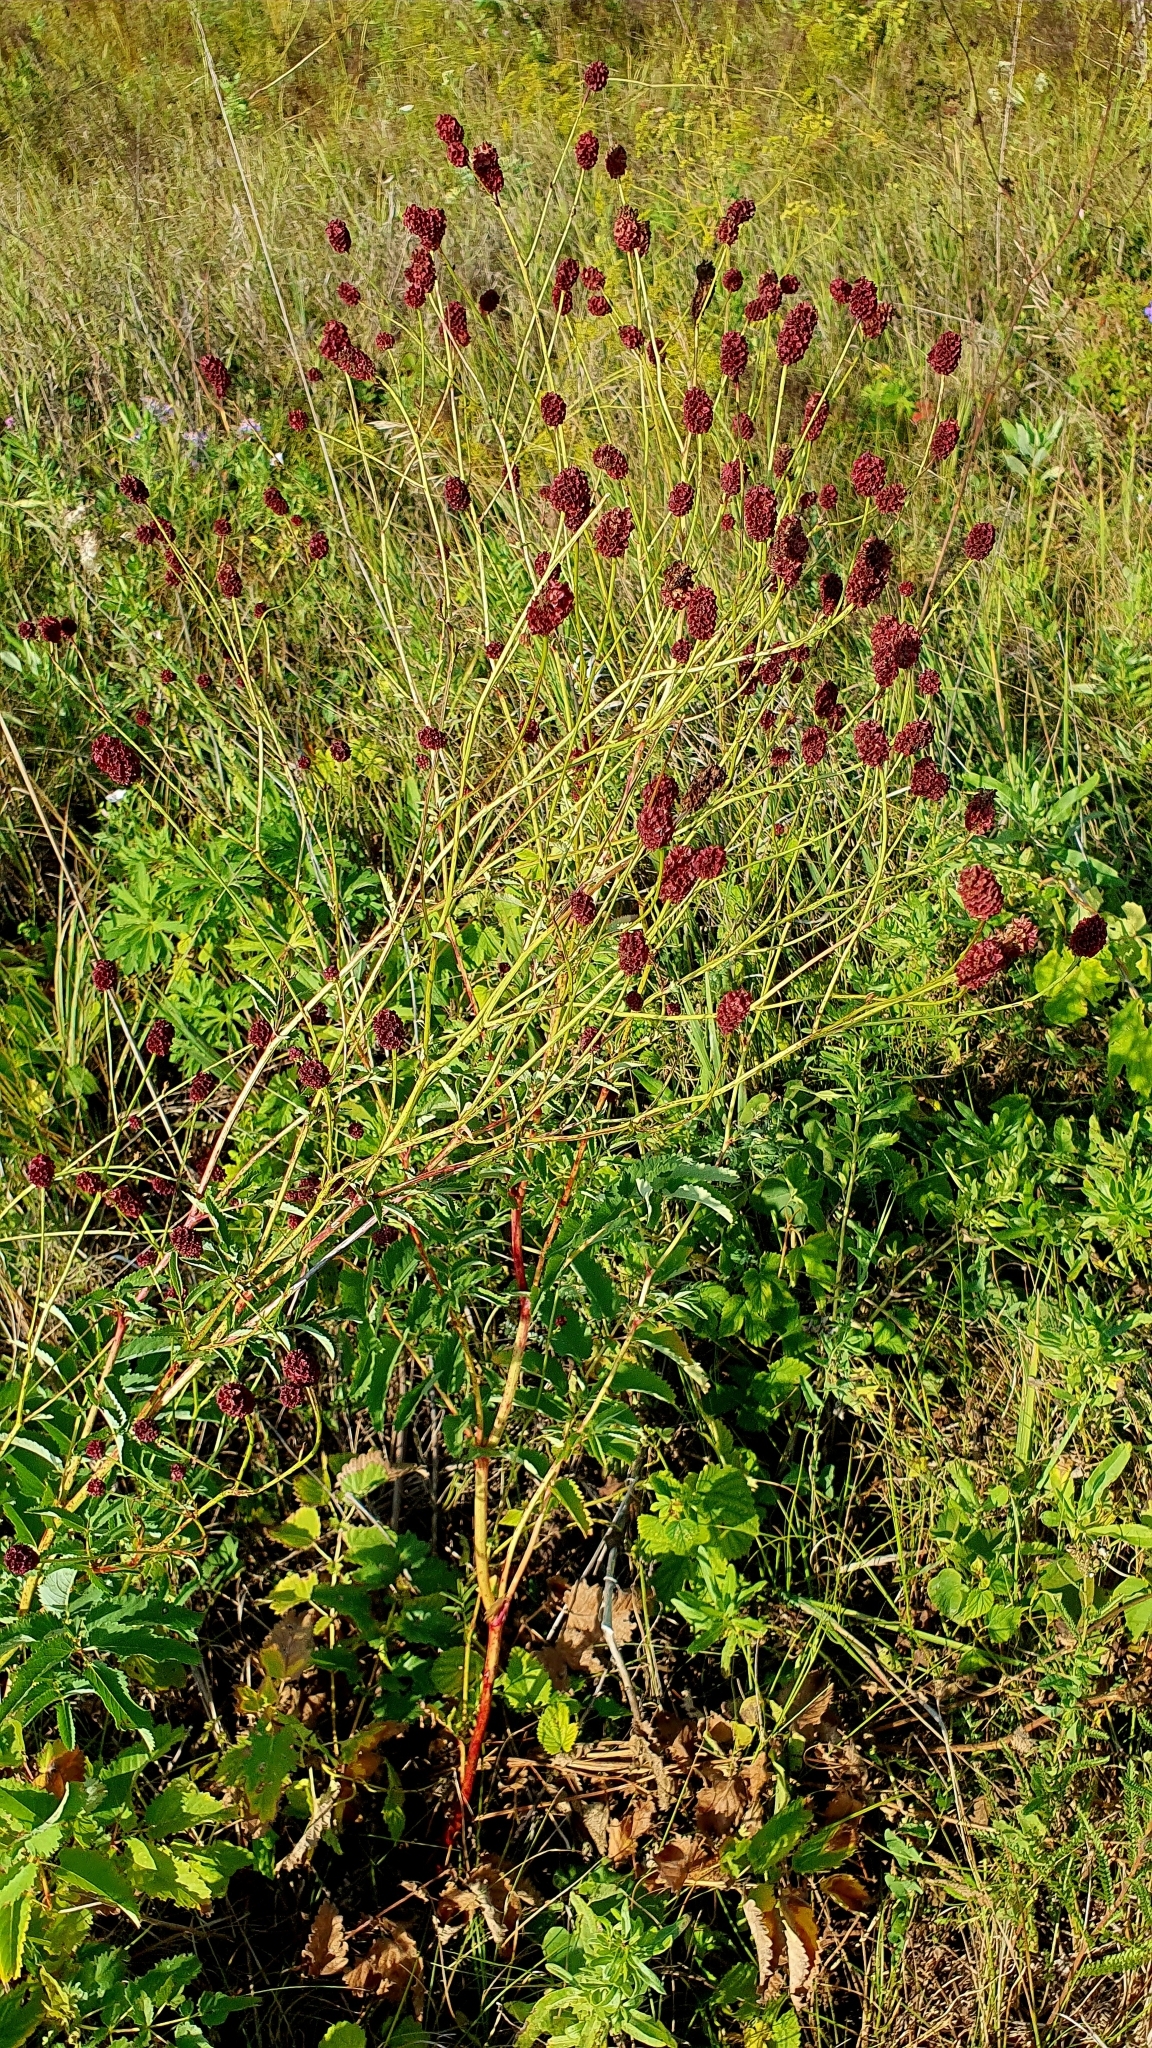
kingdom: Plantae
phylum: Tracheophyta
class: Magnoliopsida
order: Rosales
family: Rosaceae
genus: Sanguisorba
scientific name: Sanguisorba officinalis
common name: Great burnet
